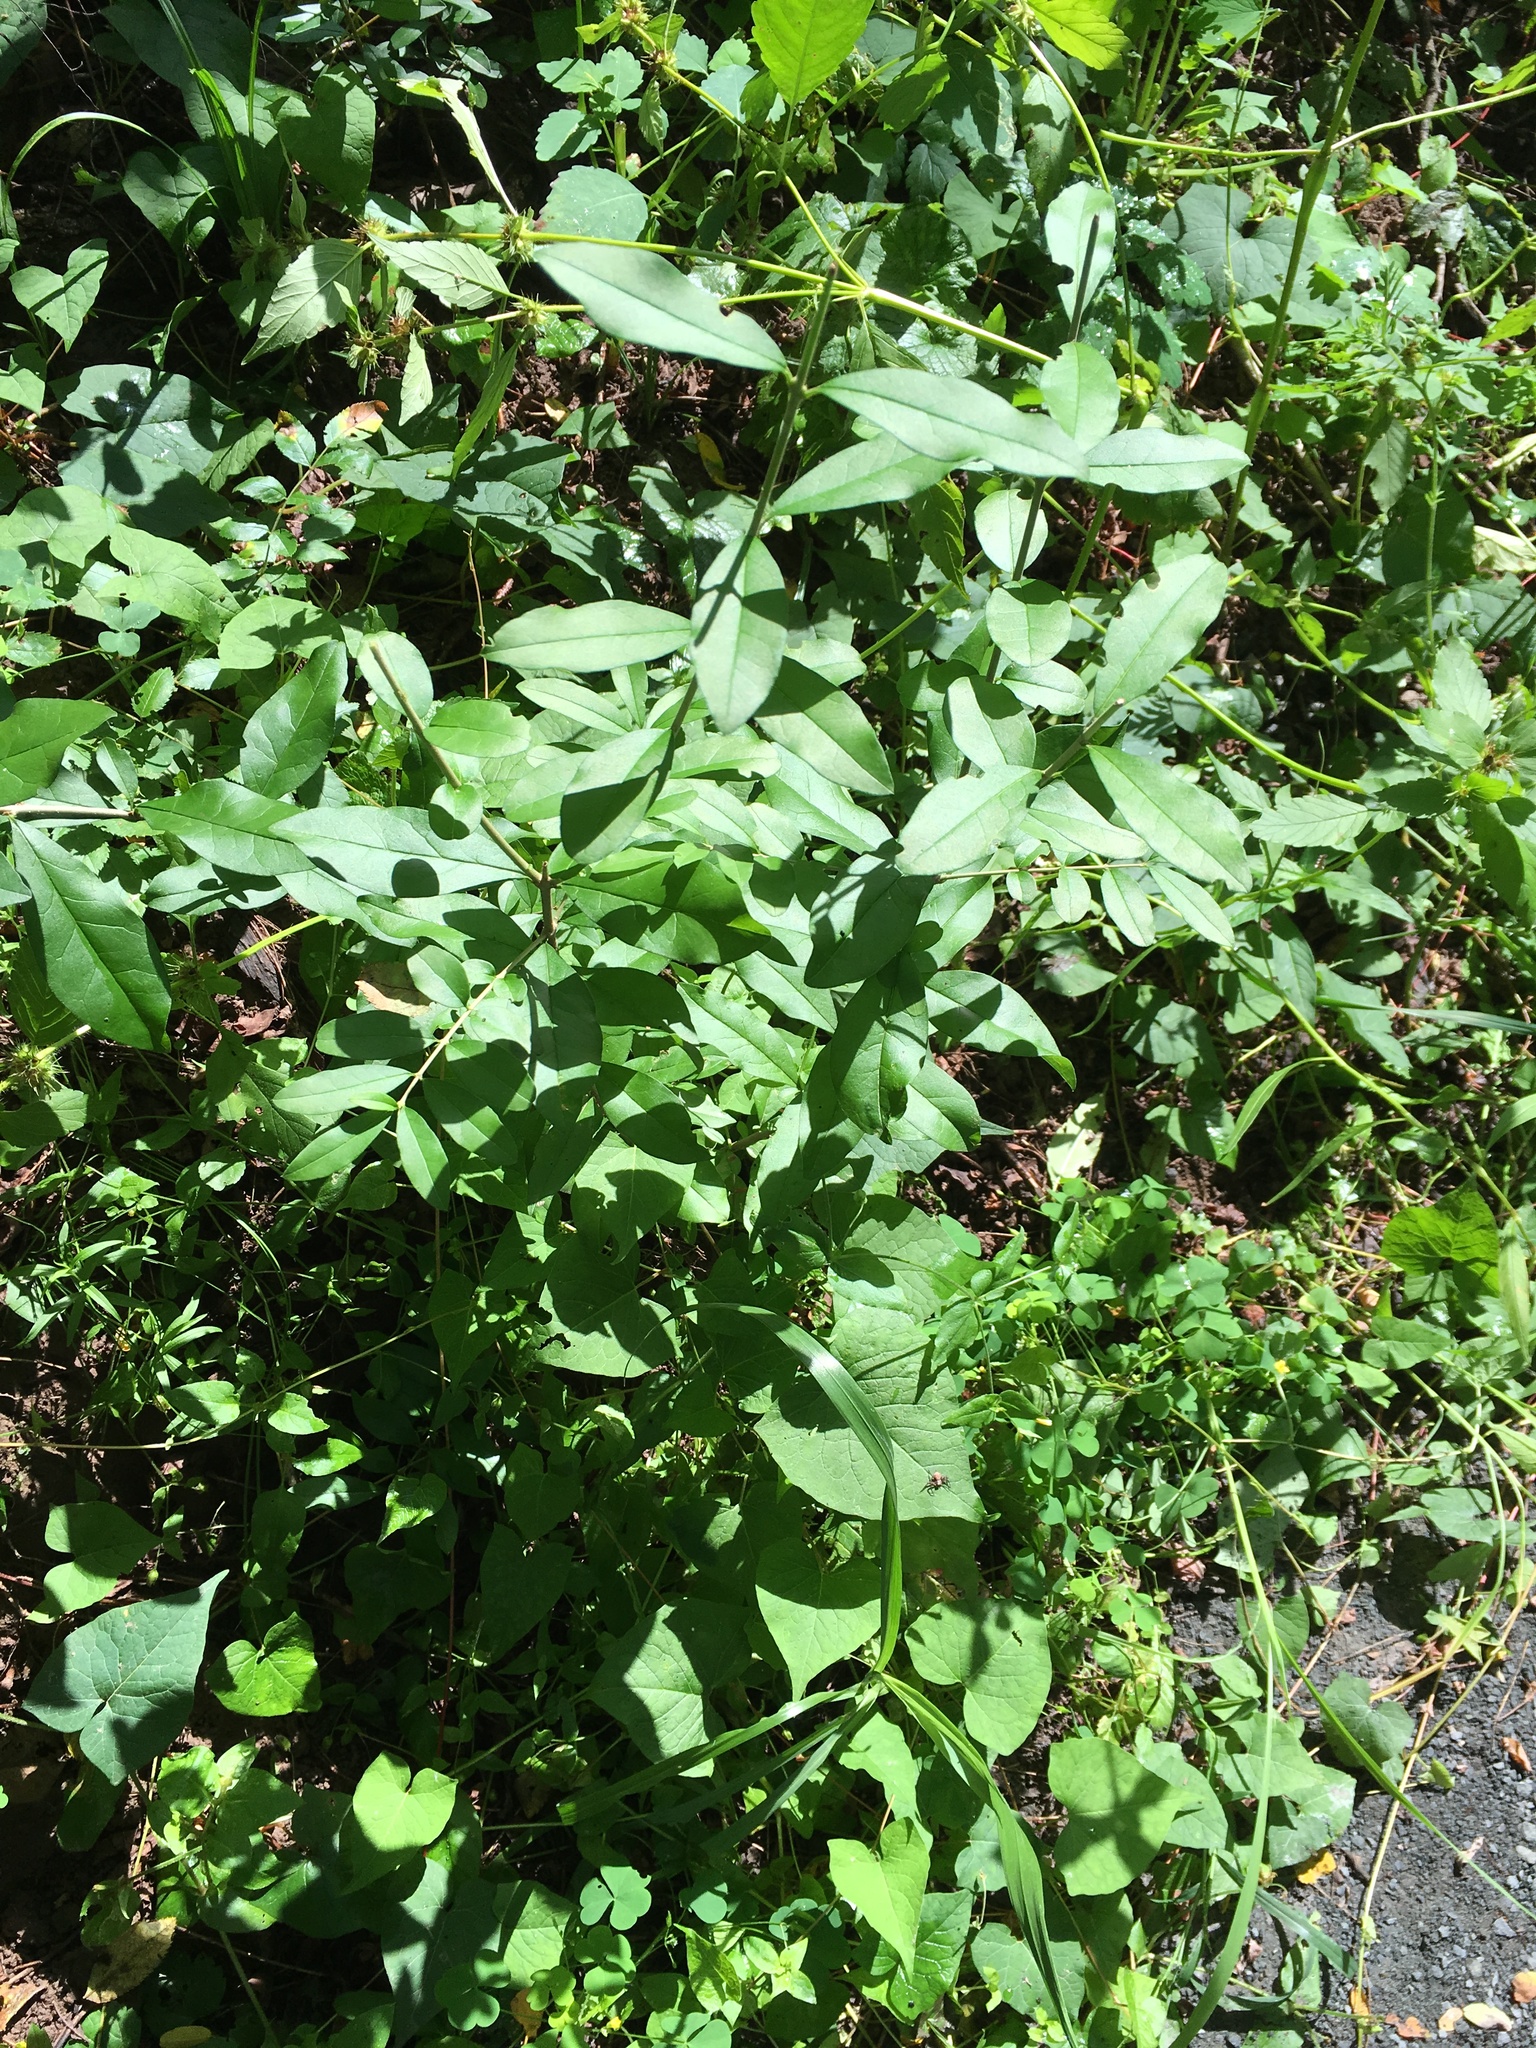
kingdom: Plantae
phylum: Tracheophyta
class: Magnoliopsida
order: Lamiales
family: Oleaceae
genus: Ligustrum
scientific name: Ligustrum obtusifolium
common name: Border privet
